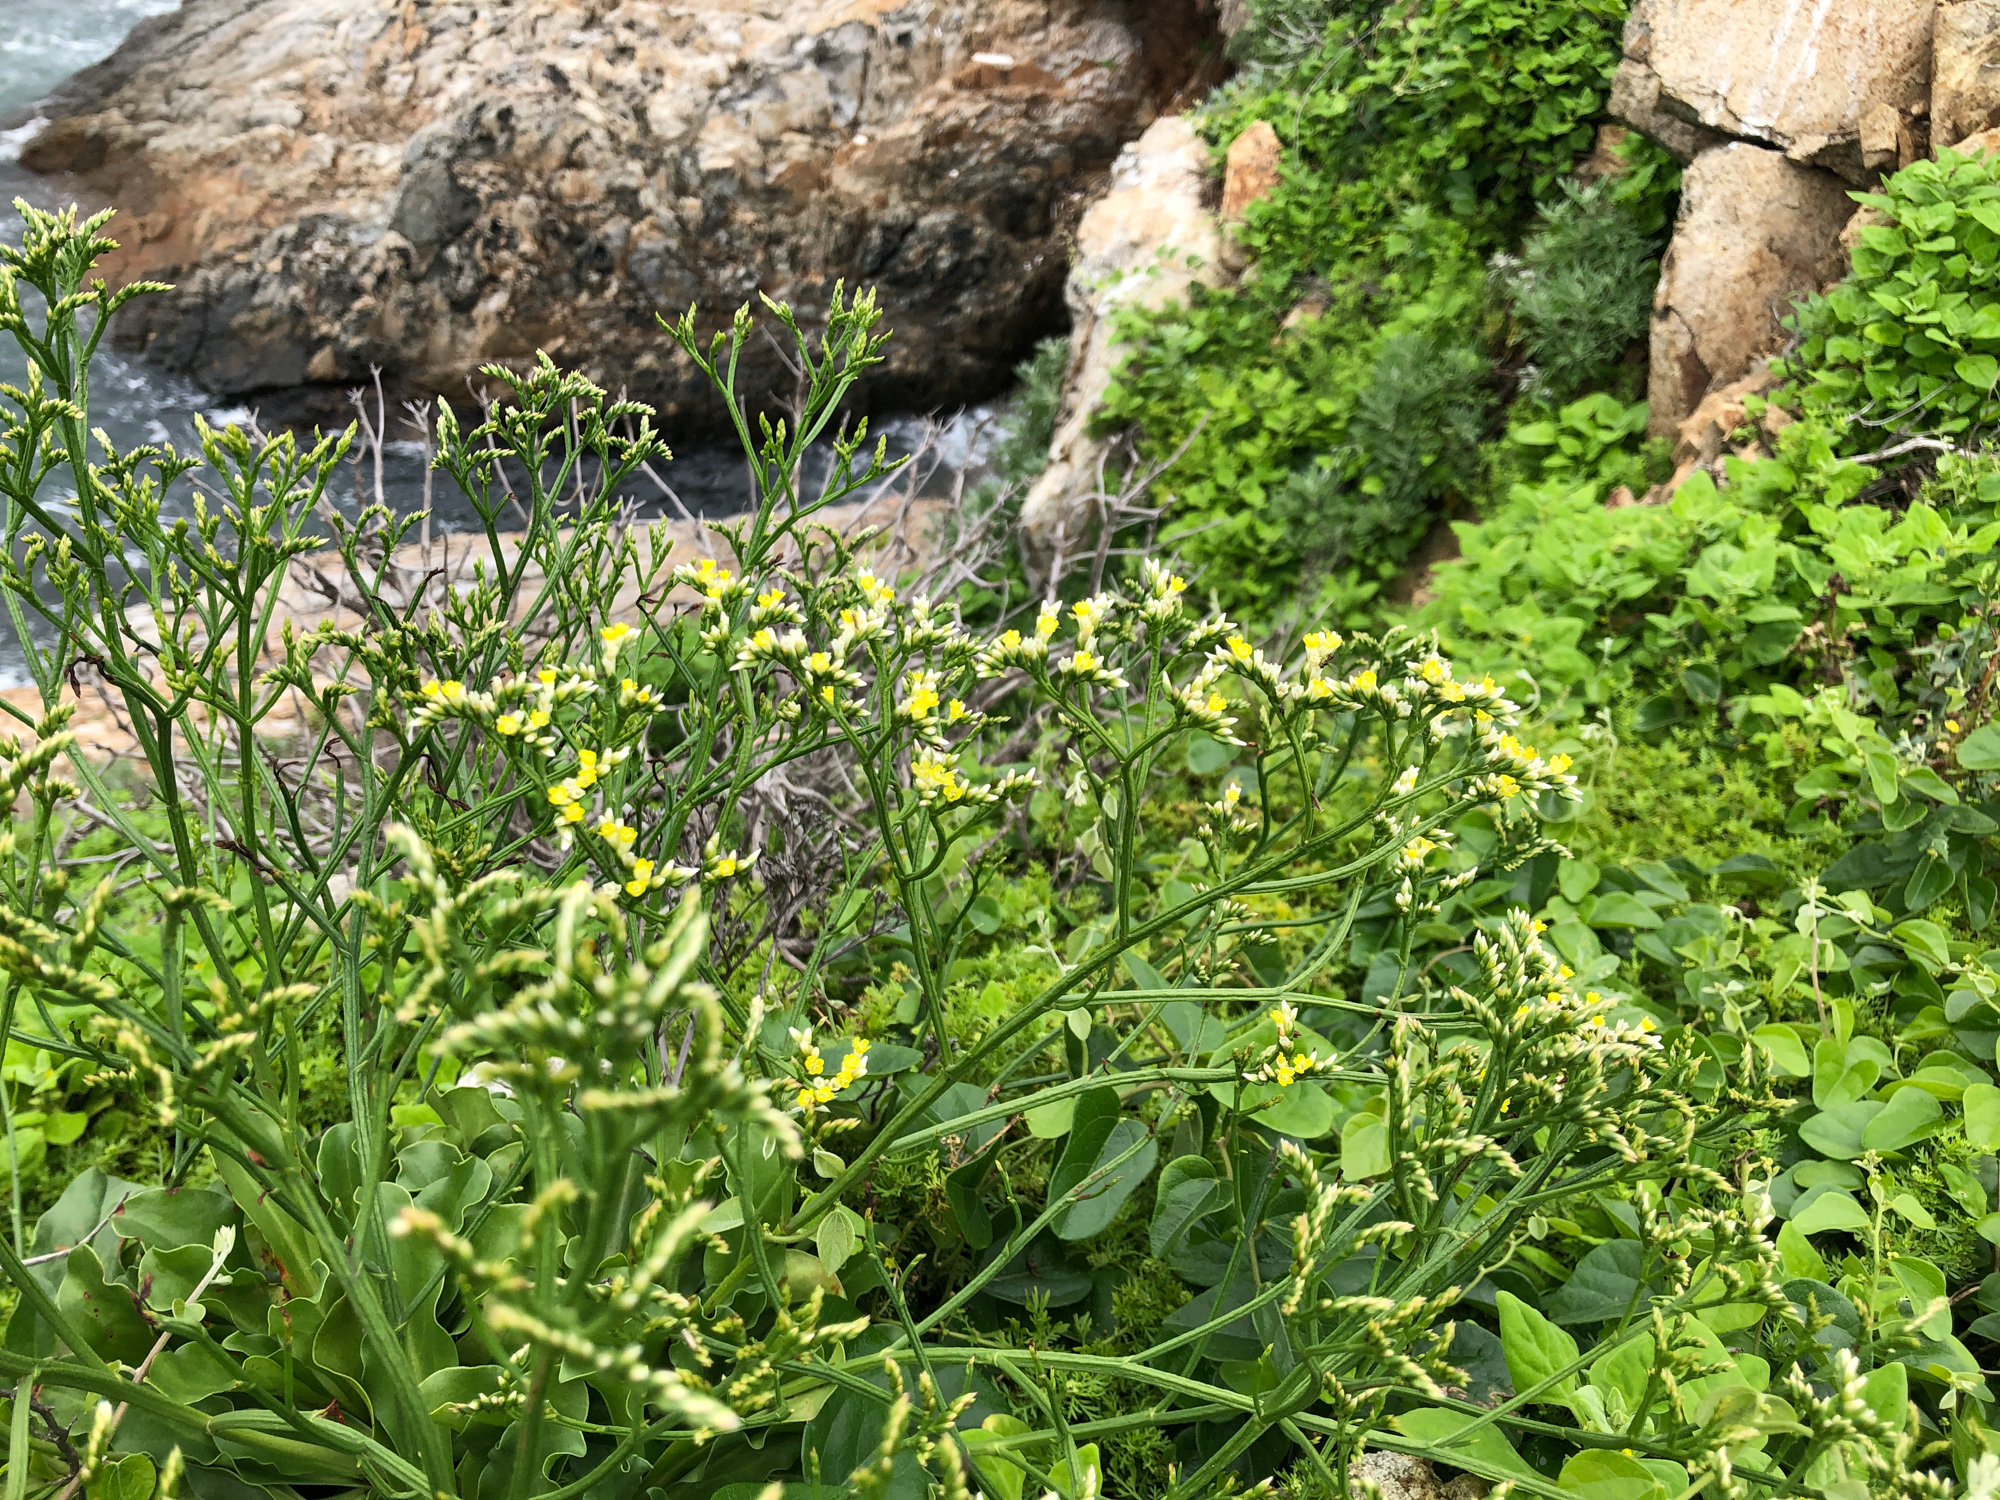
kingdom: Plantae
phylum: Tracheophyta
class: Magnoliopsida
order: Caryophyllales
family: Plumbaginaceae
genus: Limonium
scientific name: Limonium sinense
